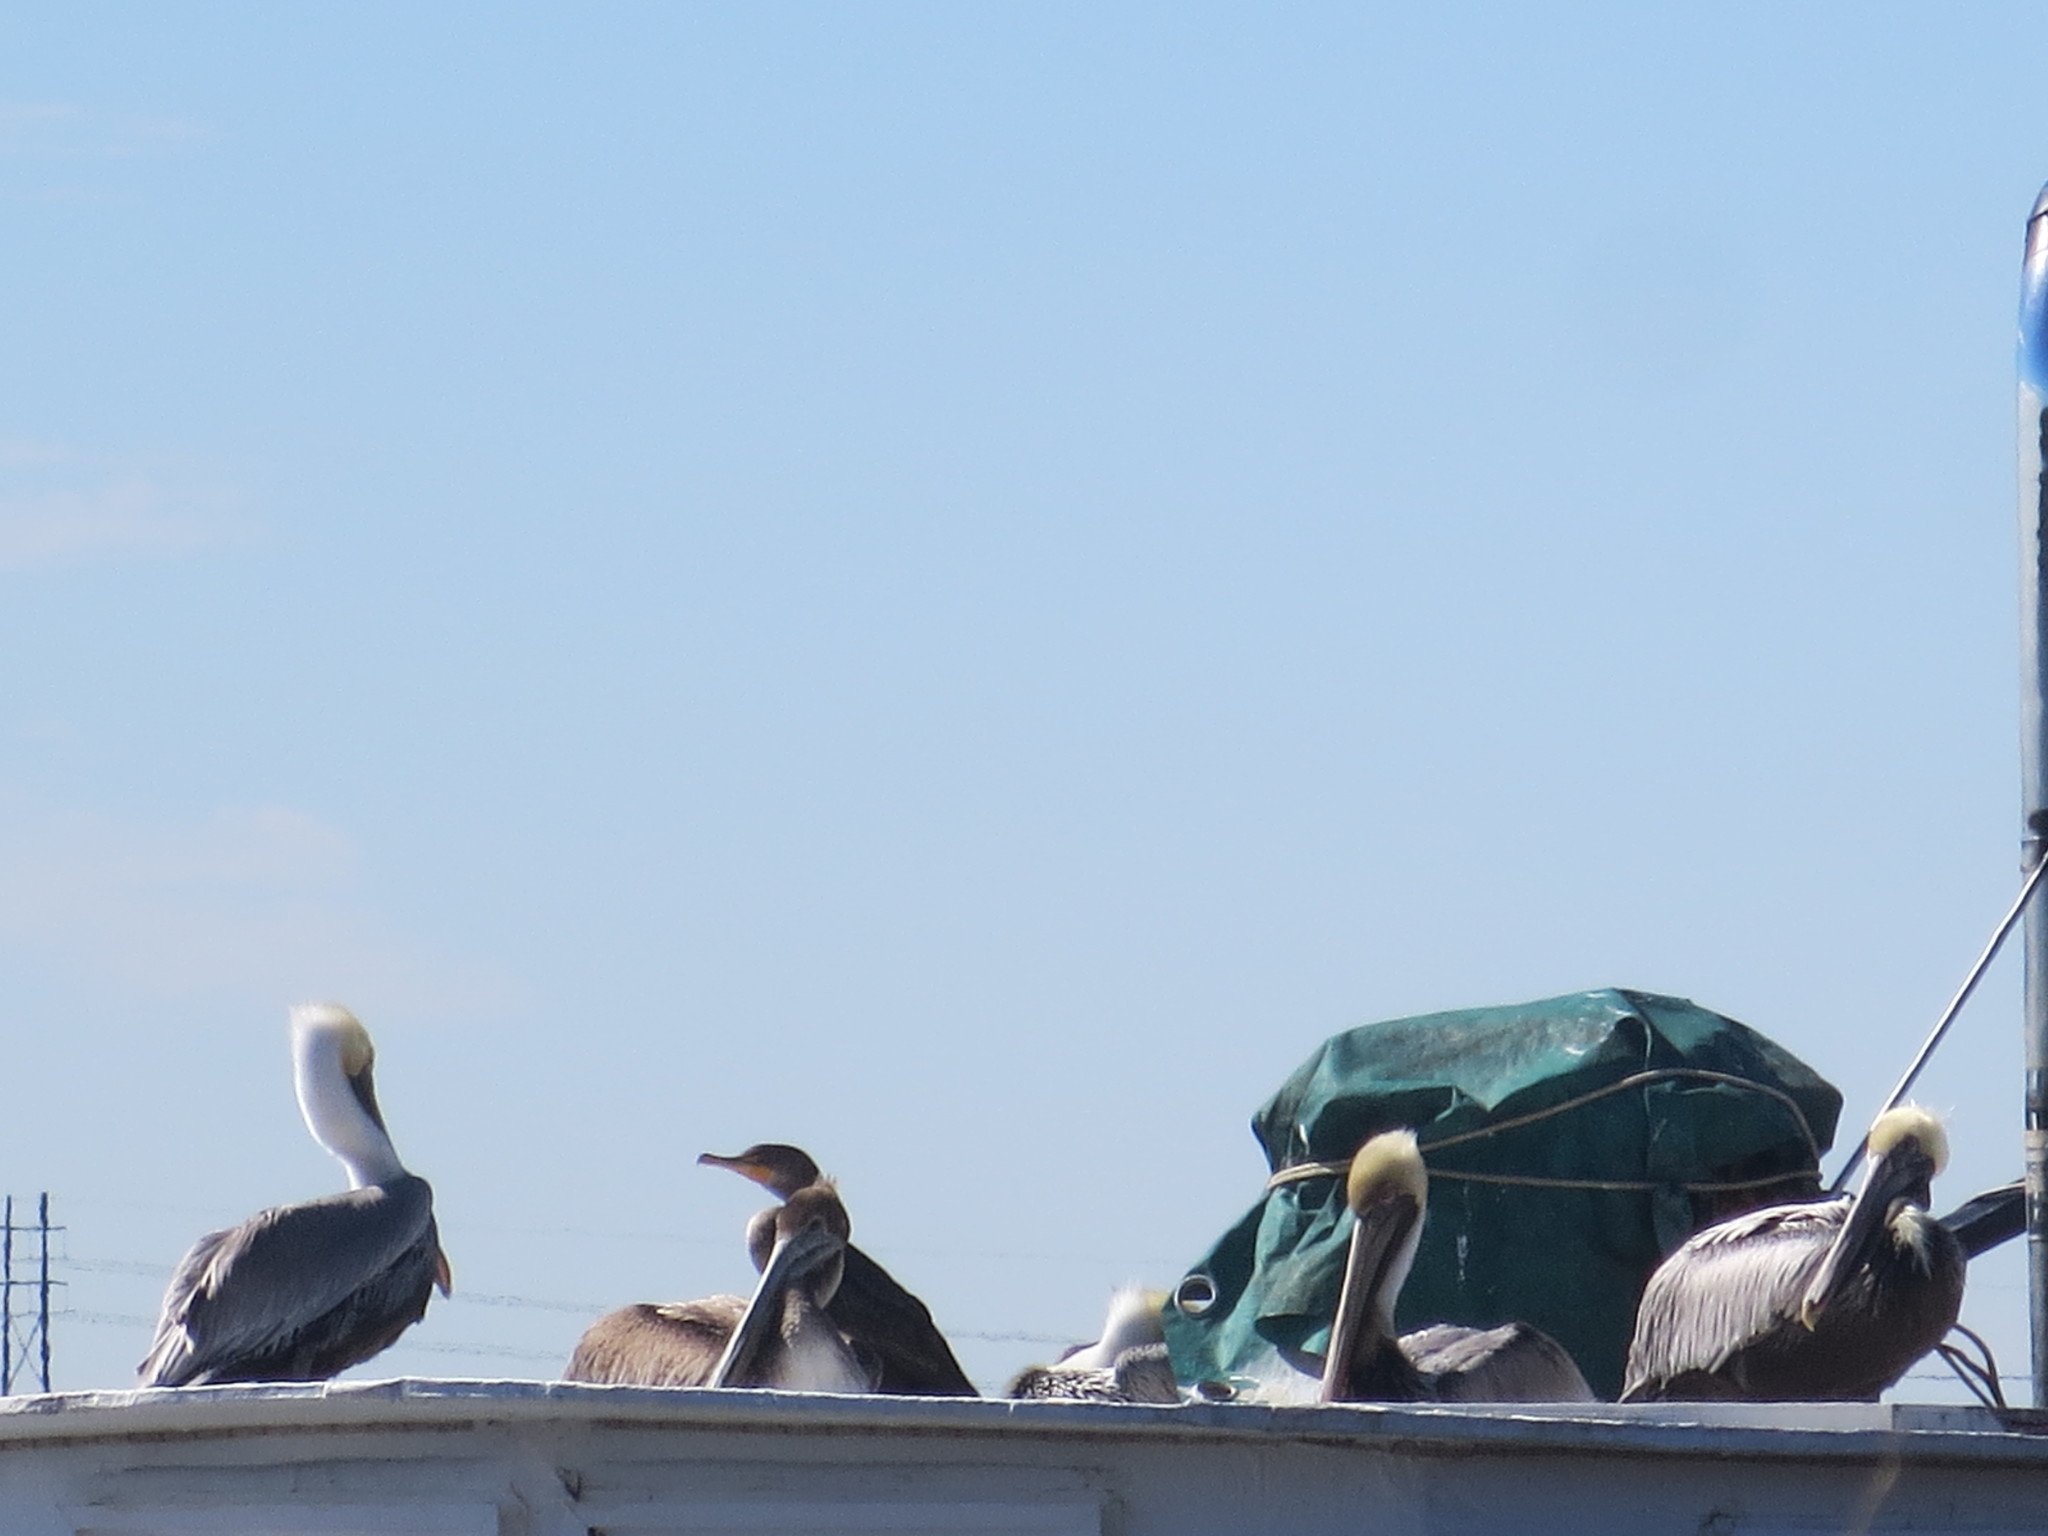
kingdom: Animalia
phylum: Chordata
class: Aves
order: Suliformes
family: Phalacrocoracidae
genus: Phalacrocorax
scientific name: Phalacrocorax auritus
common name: Double-crested cormorant
